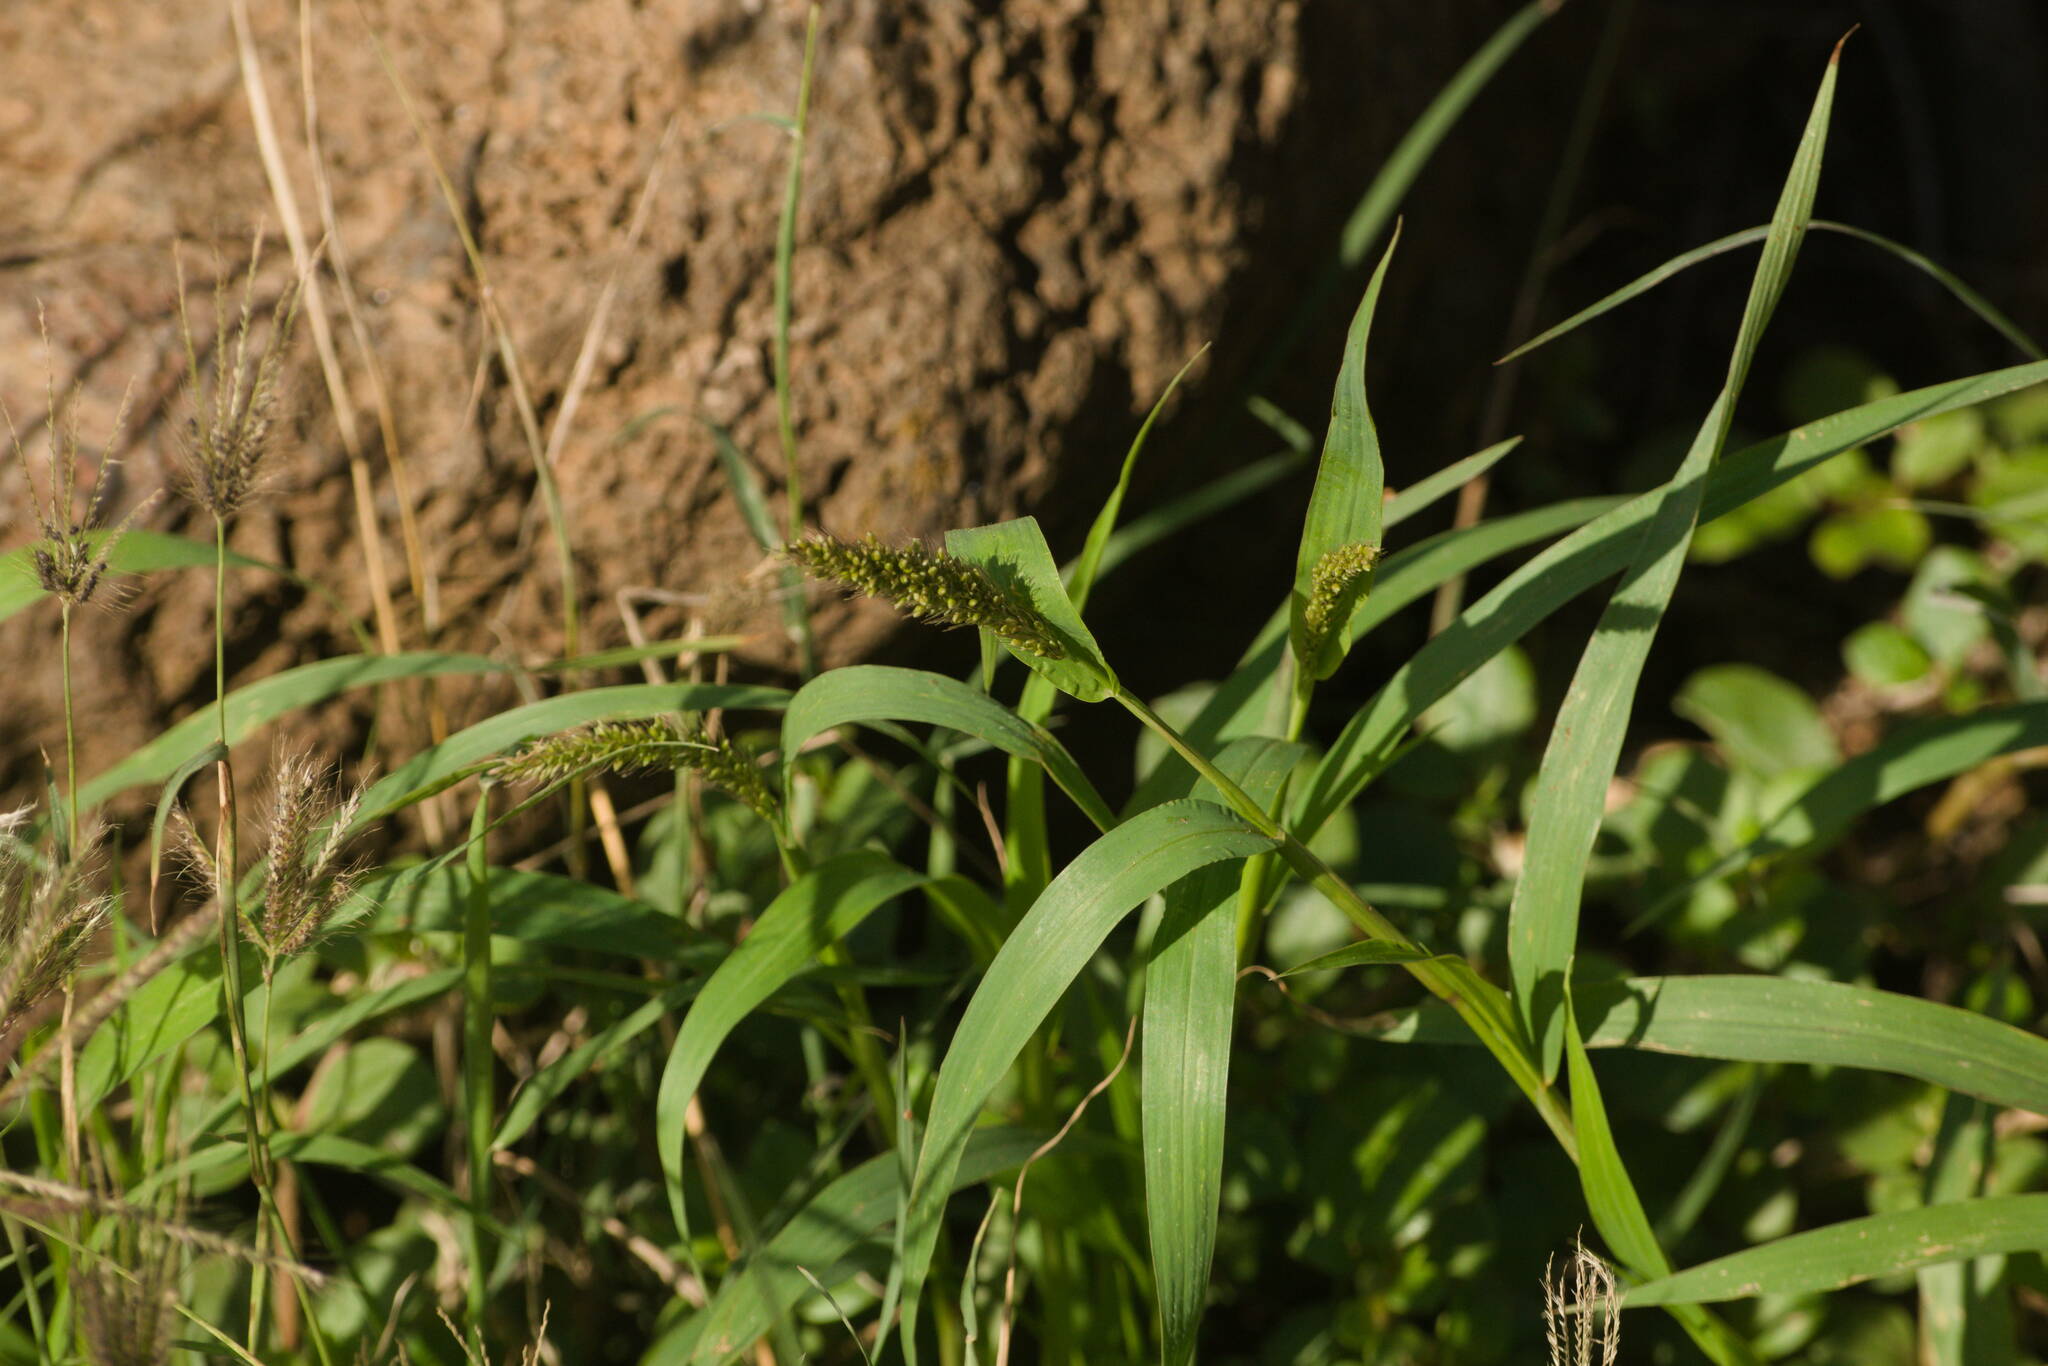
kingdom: Plantae
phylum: Tracheophyta
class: Liliopsida
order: Poales
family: Poaceae
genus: Setaria
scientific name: Setaria adhaerens
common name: Adherent bristle-grass
